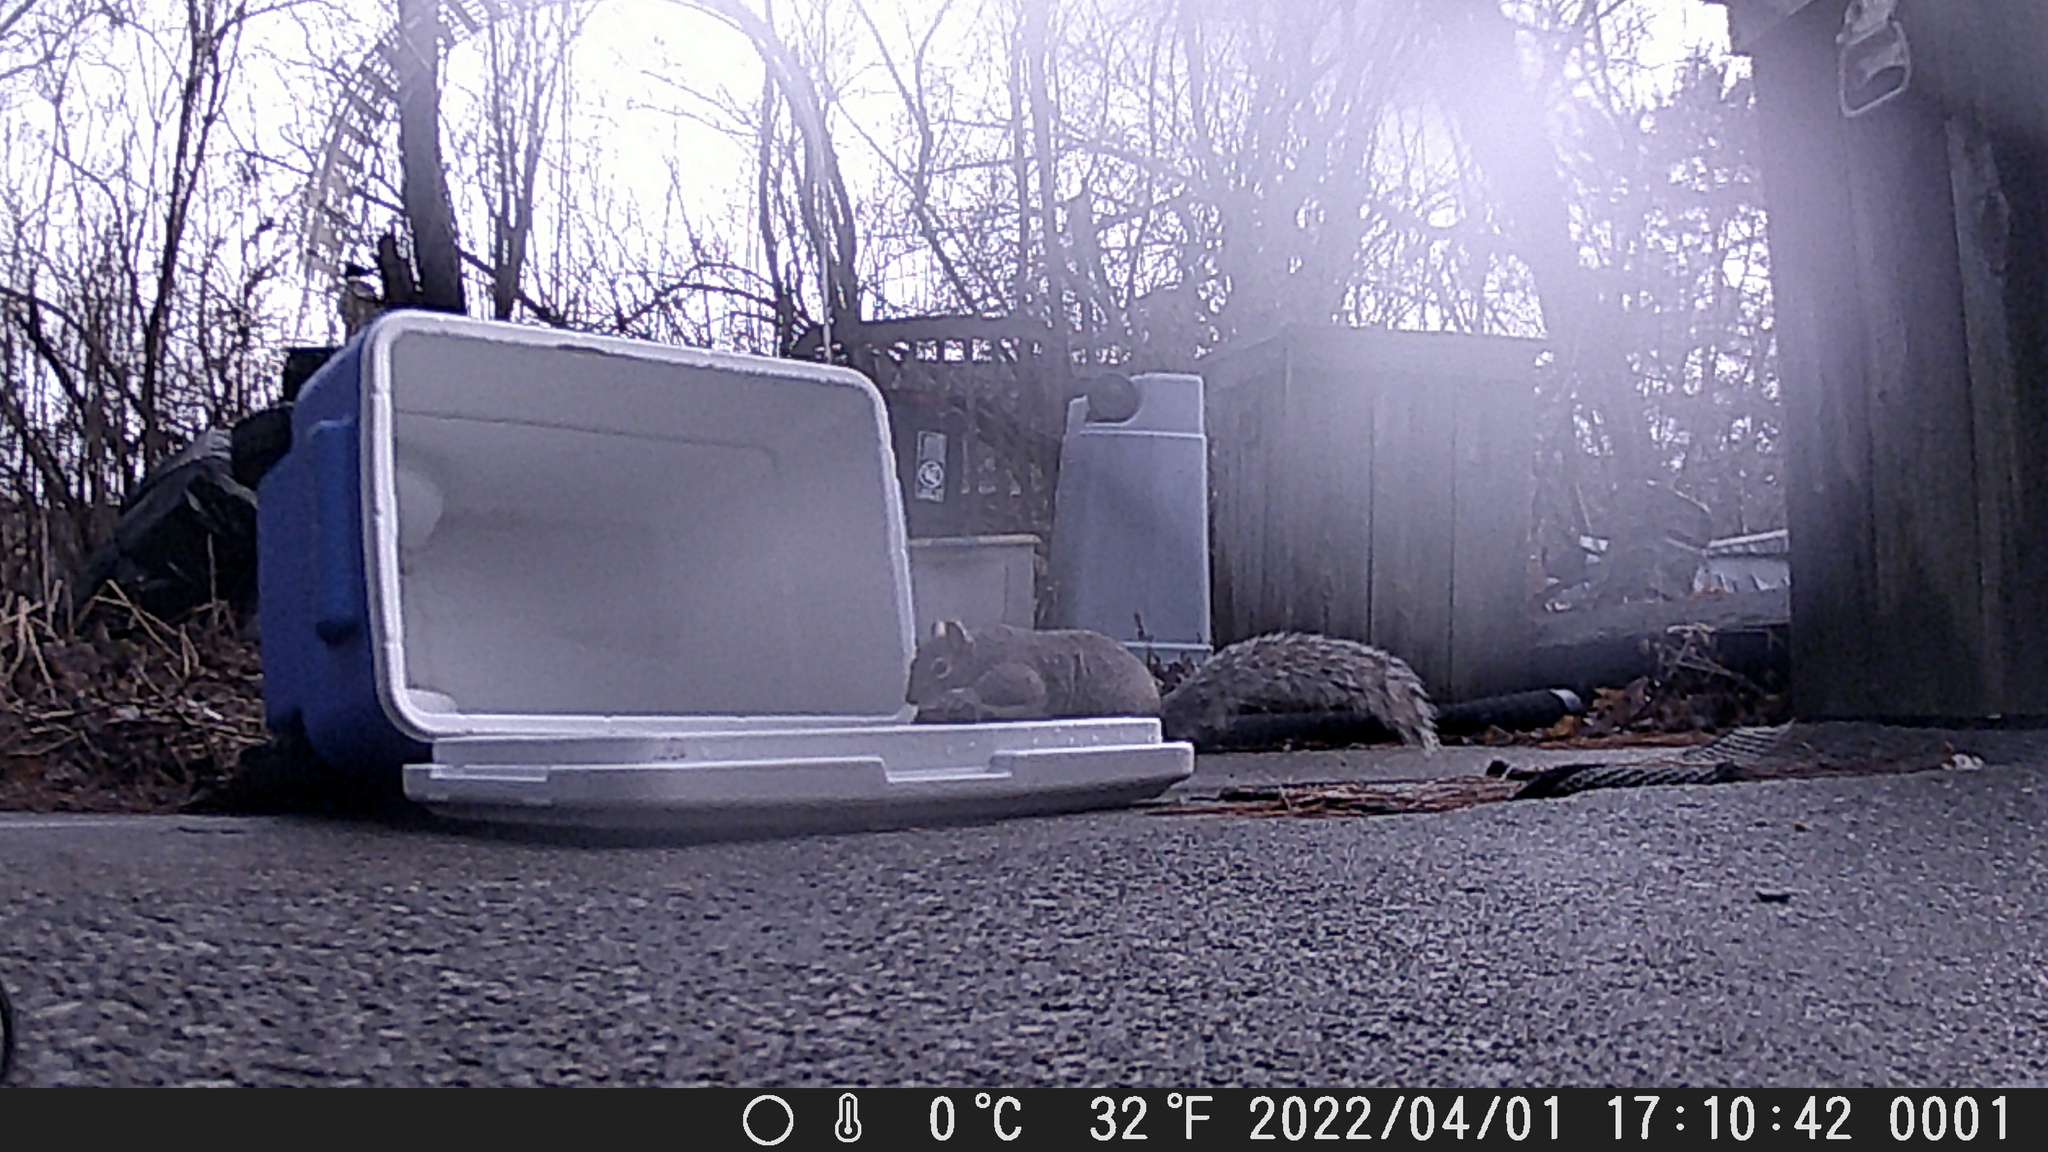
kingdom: Animalia
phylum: Chordata
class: Mammalia
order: Rodentia
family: Sciuridae
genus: Sciurus
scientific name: Sciurus carolinensis
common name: Eastern gray squirrel
